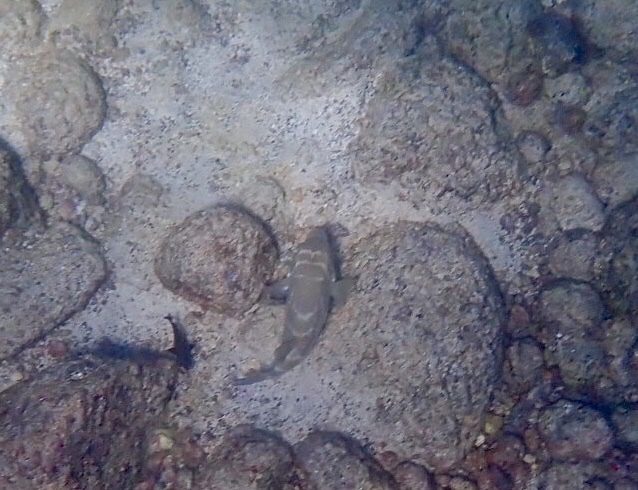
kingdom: Animalia
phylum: Chordata
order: Tetraodontiformes
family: Tetraodontidae
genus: Sphoeroides
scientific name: Sphoeroides annulatus
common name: Bullseye puffer
